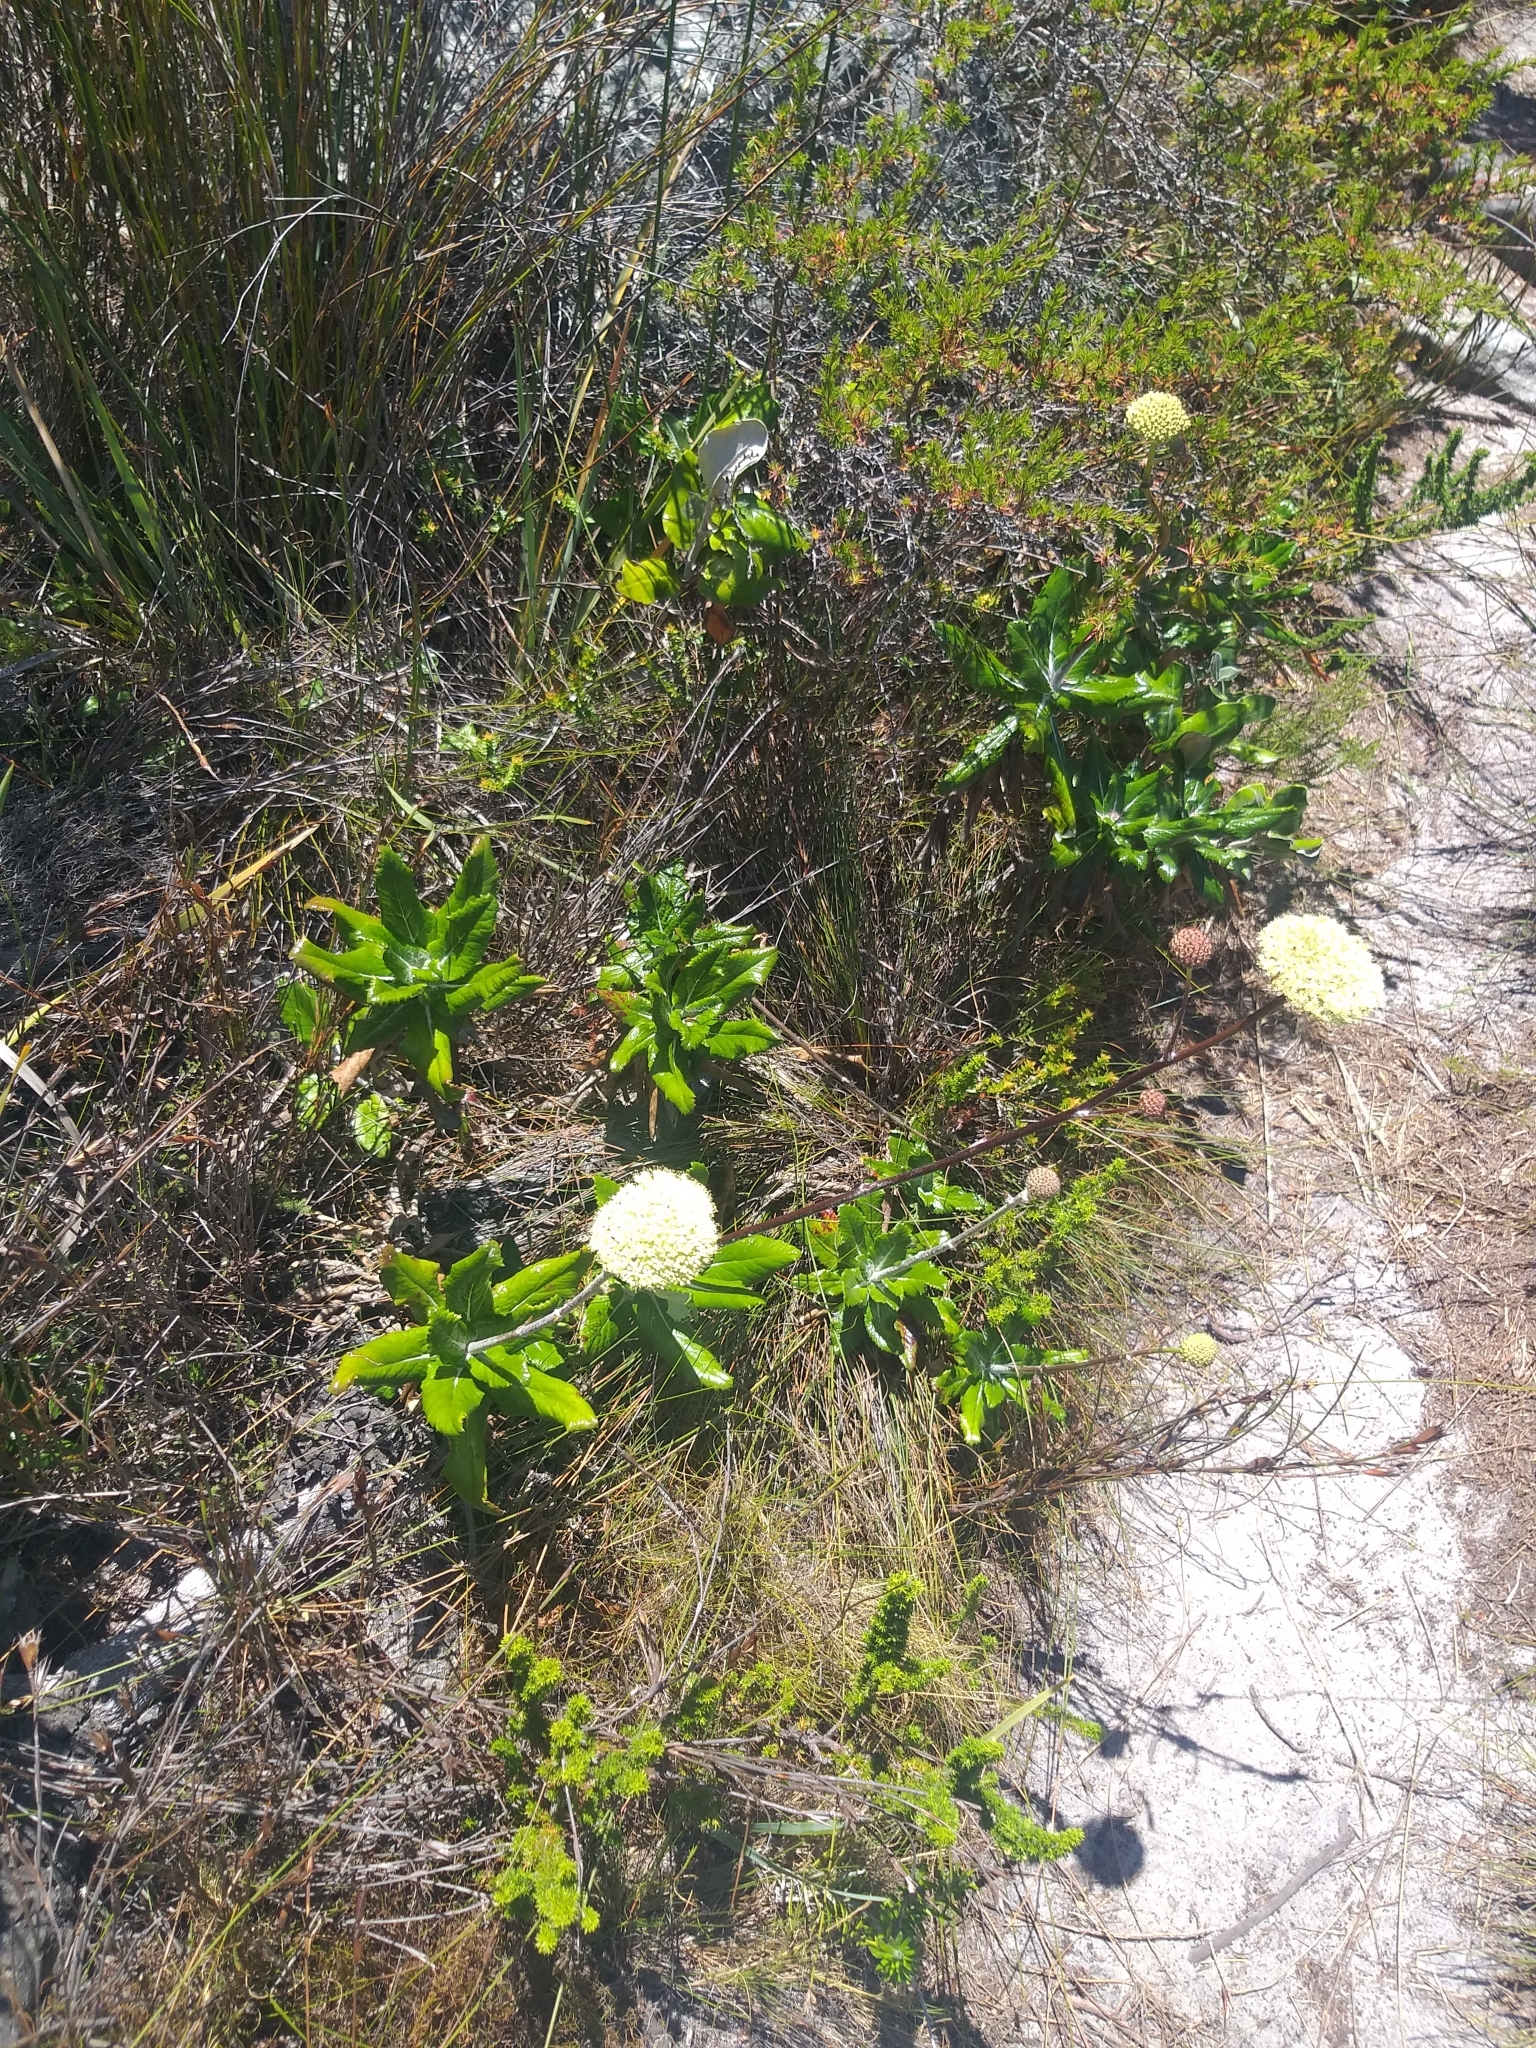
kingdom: Plantae
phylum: Tracheophyta
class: Magnoliopsida
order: Apiales
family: Apiaceae
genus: Hermas
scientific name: Hermas villosa
